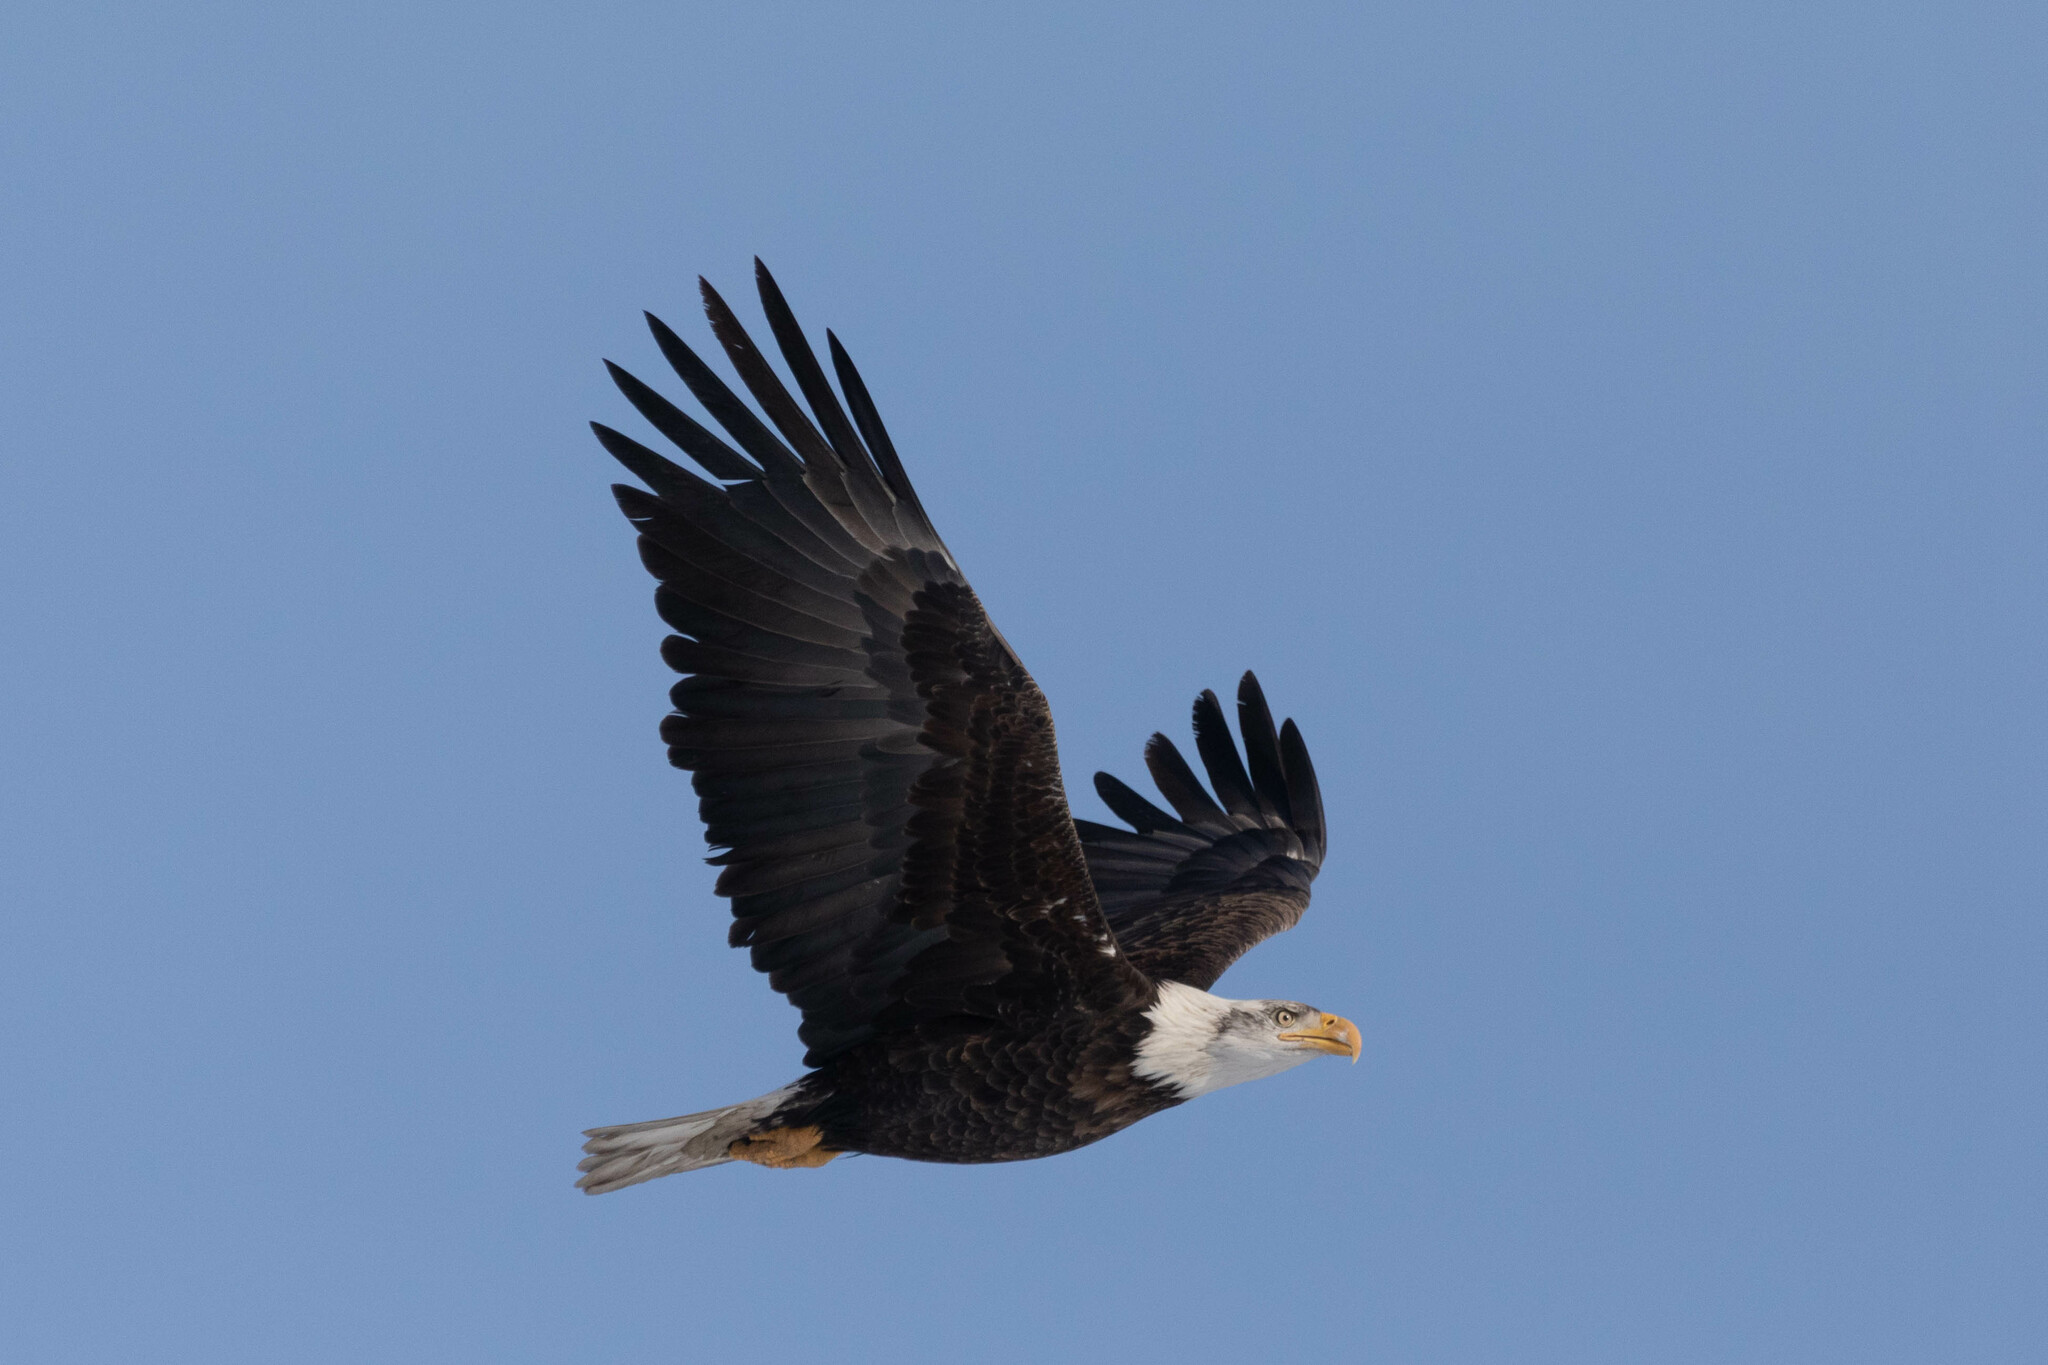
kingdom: Animalia
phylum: Chordata
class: Aves
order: Accipitriformes
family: Accipitridae
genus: Haliaeetus
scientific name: Haliaeetus leucocephalus
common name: Bald eagle
